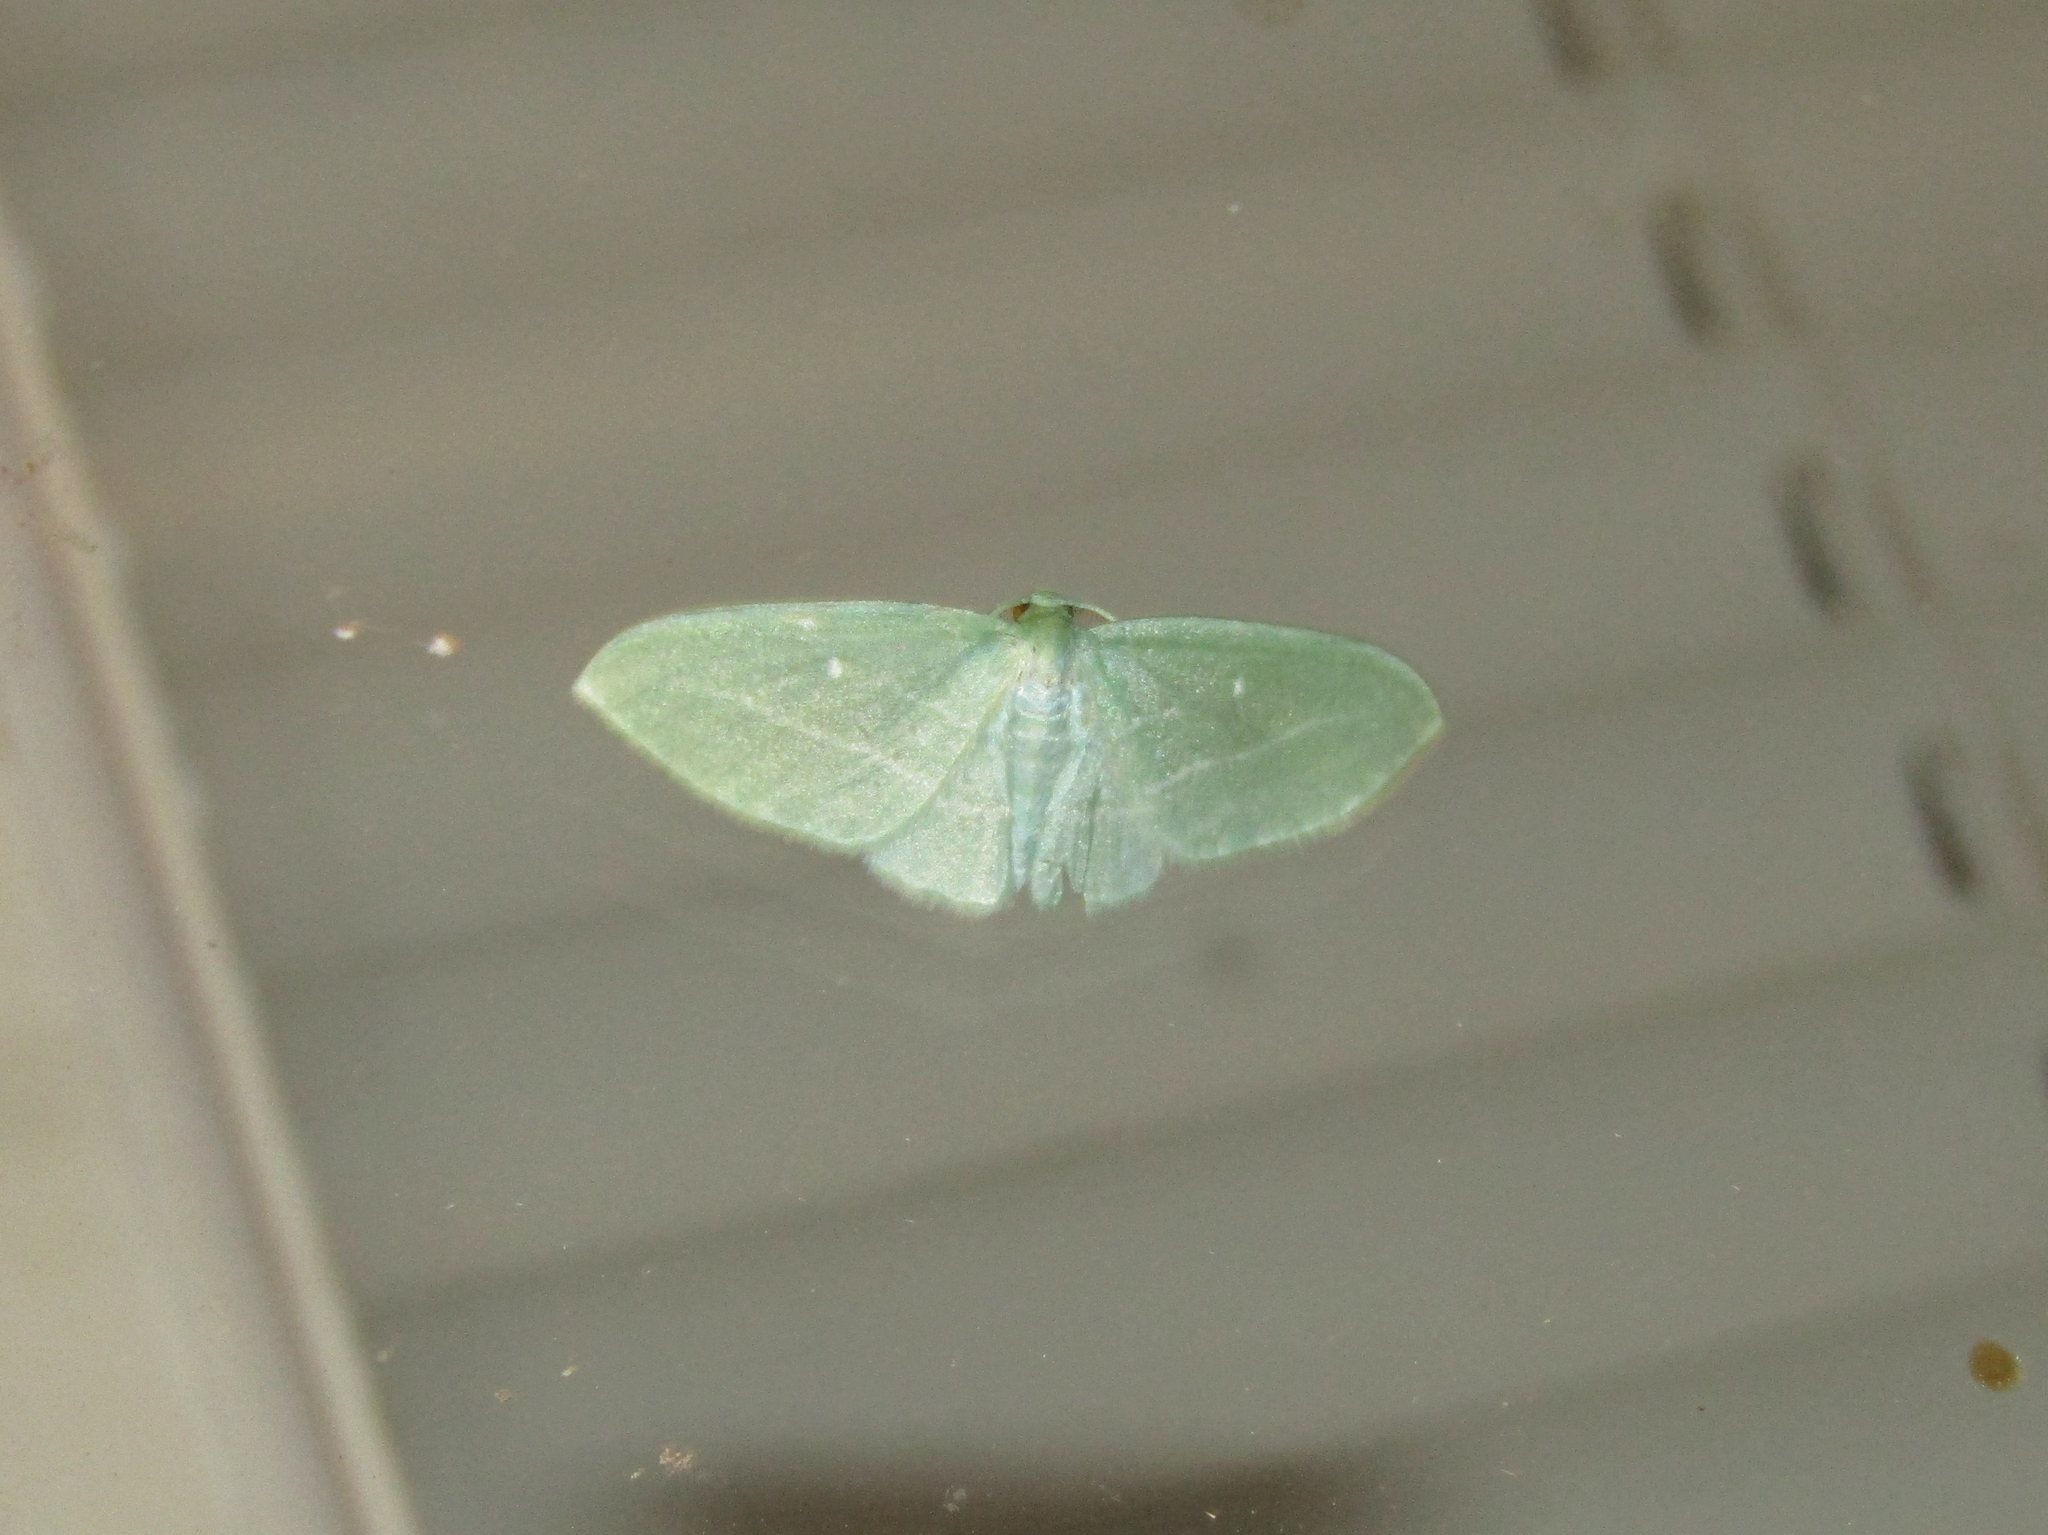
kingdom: Animalia
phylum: Arthropoda
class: Insecta
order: Lepidoptera
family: Geometridae
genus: Dyspteris
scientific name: Dyspteris abortivaria
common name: Bad-wing
